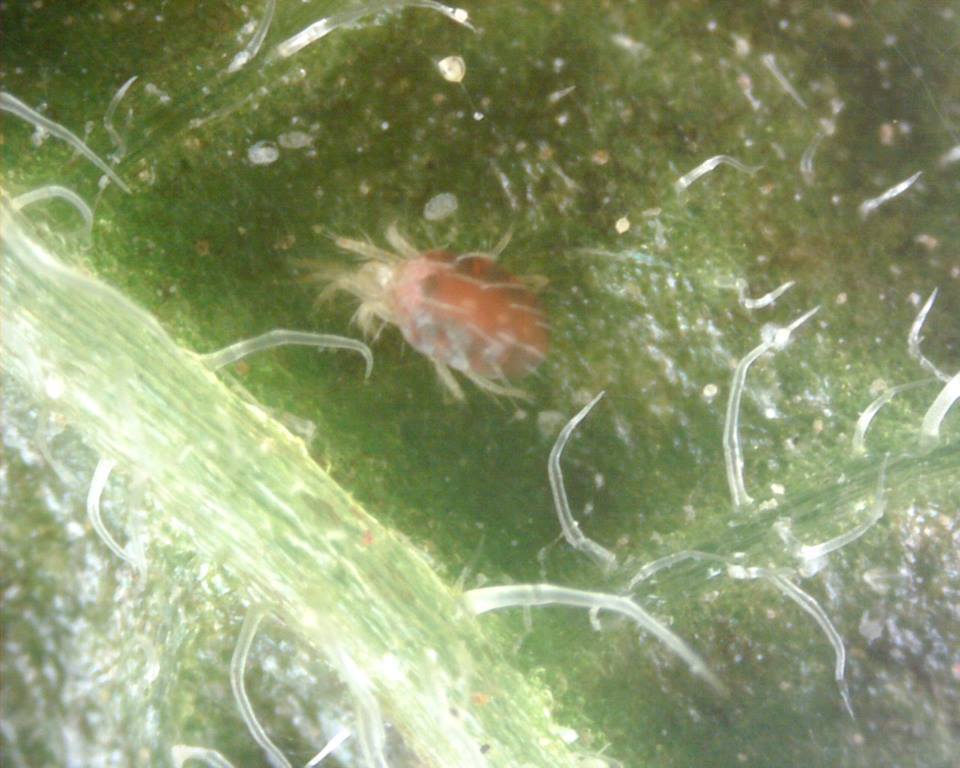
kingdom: Animalia
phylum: Arthropoda
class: Arachnida
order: Trombidiformes
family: Tetranychidae
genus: Tetranychus
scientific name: Tetranychus urticae
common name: Carmine spider mite
